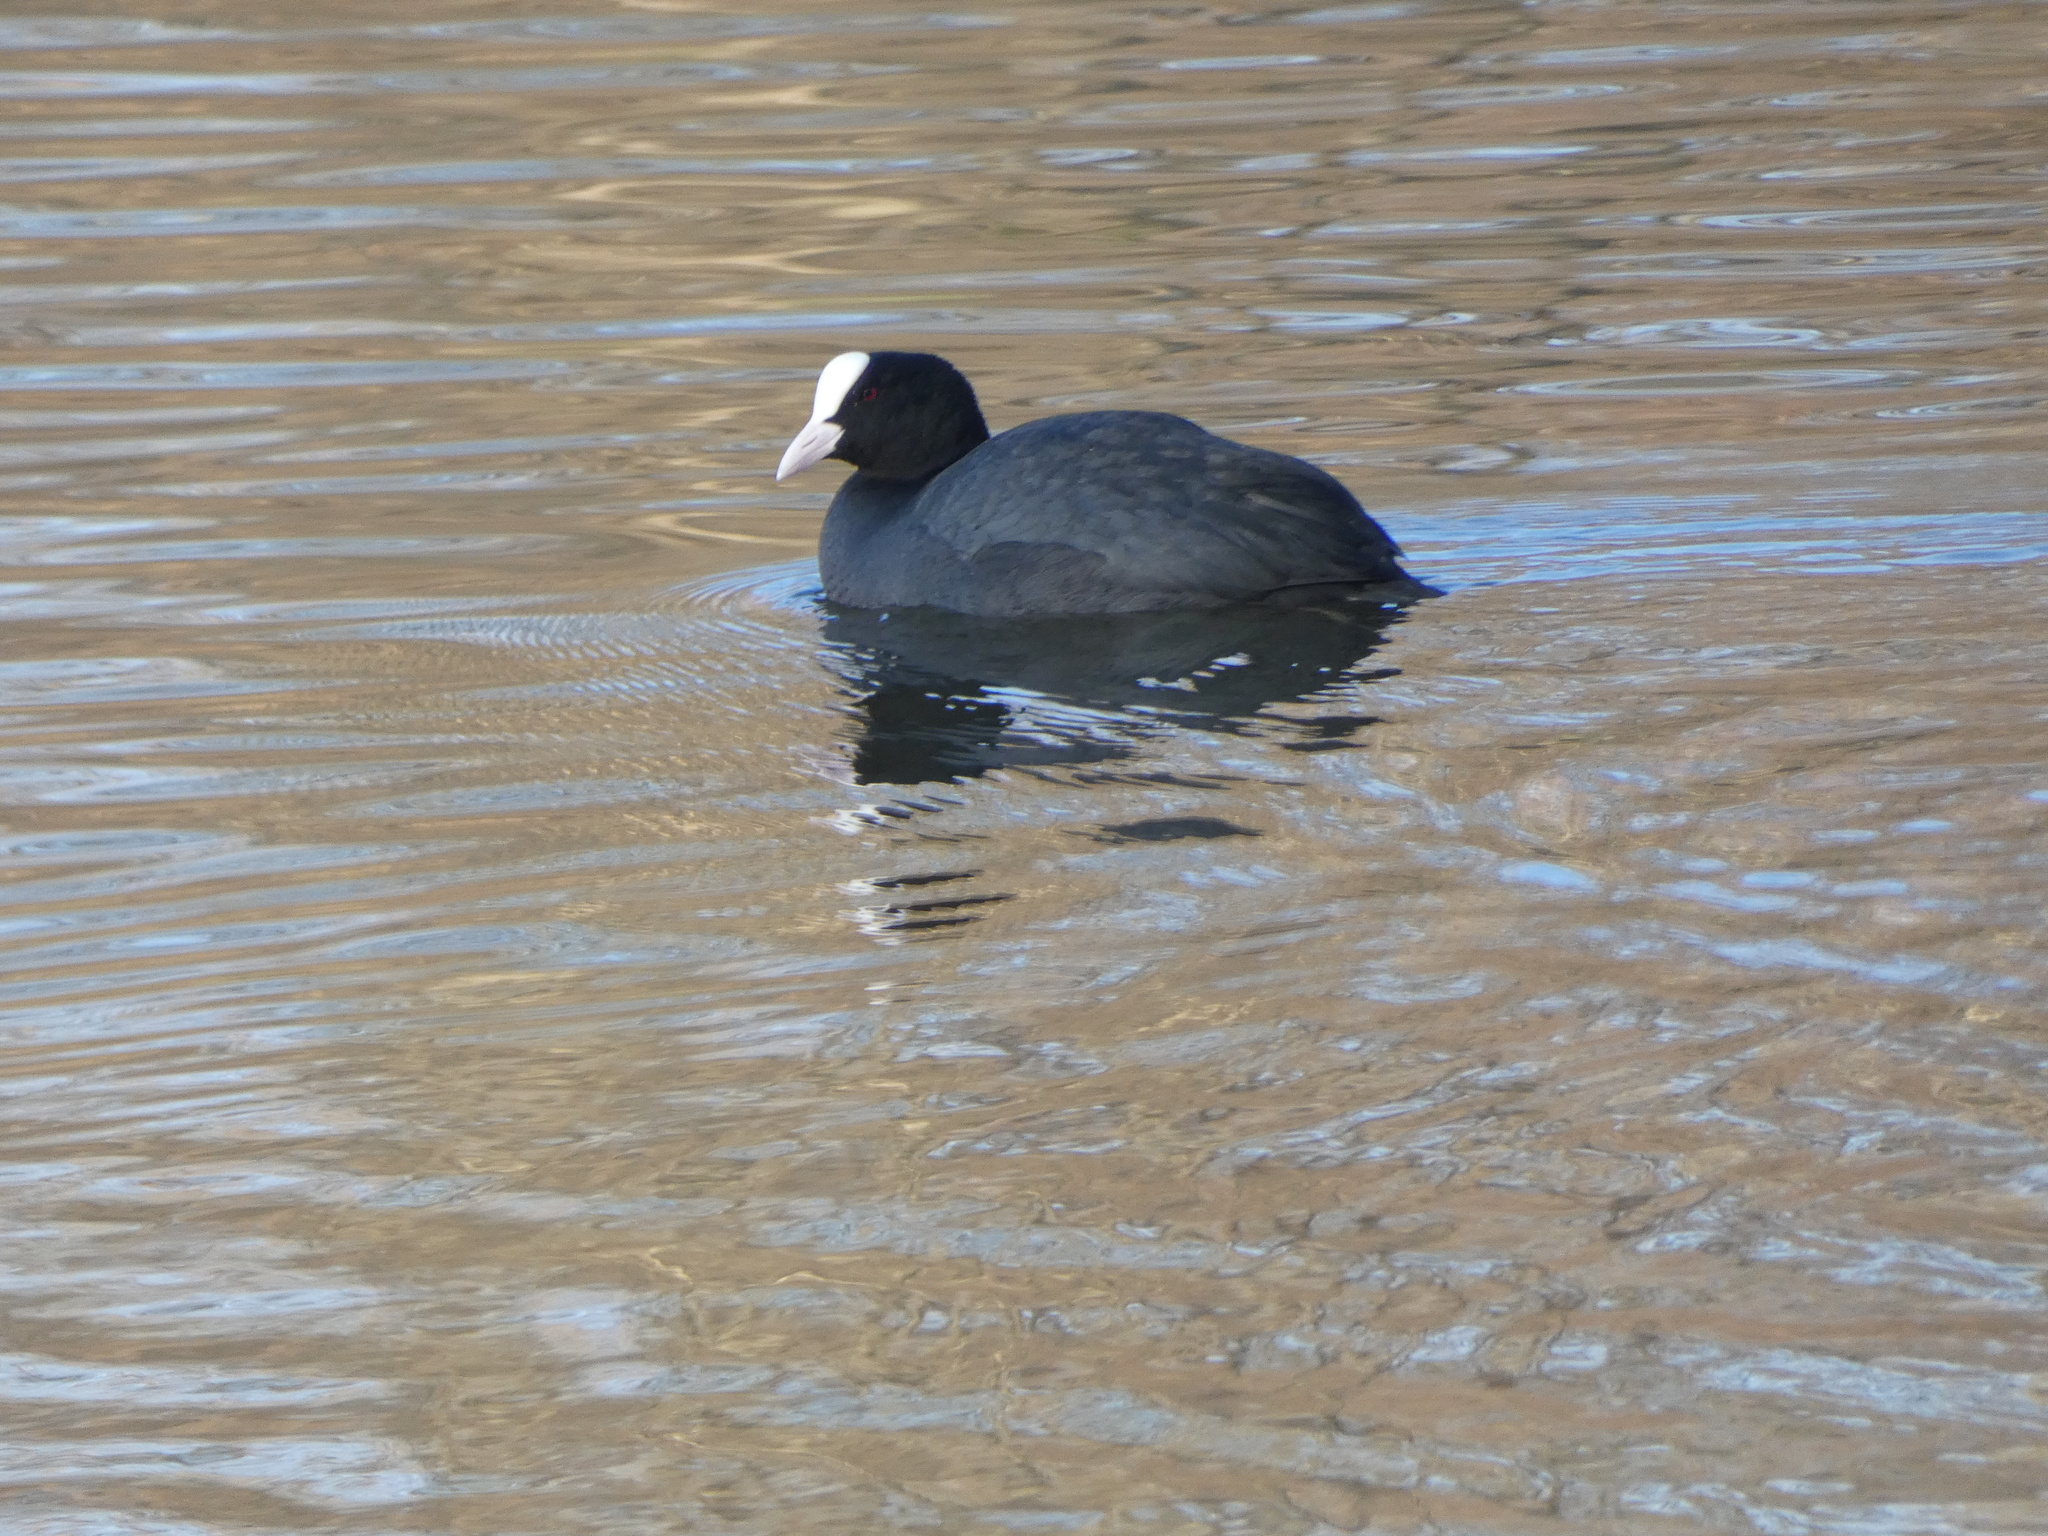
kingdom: Animalia
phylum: Chordata
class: Aves
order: Gruiformes
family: Rallidae
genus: Fulica
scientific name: Fulica atra
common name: Eurasian coot
